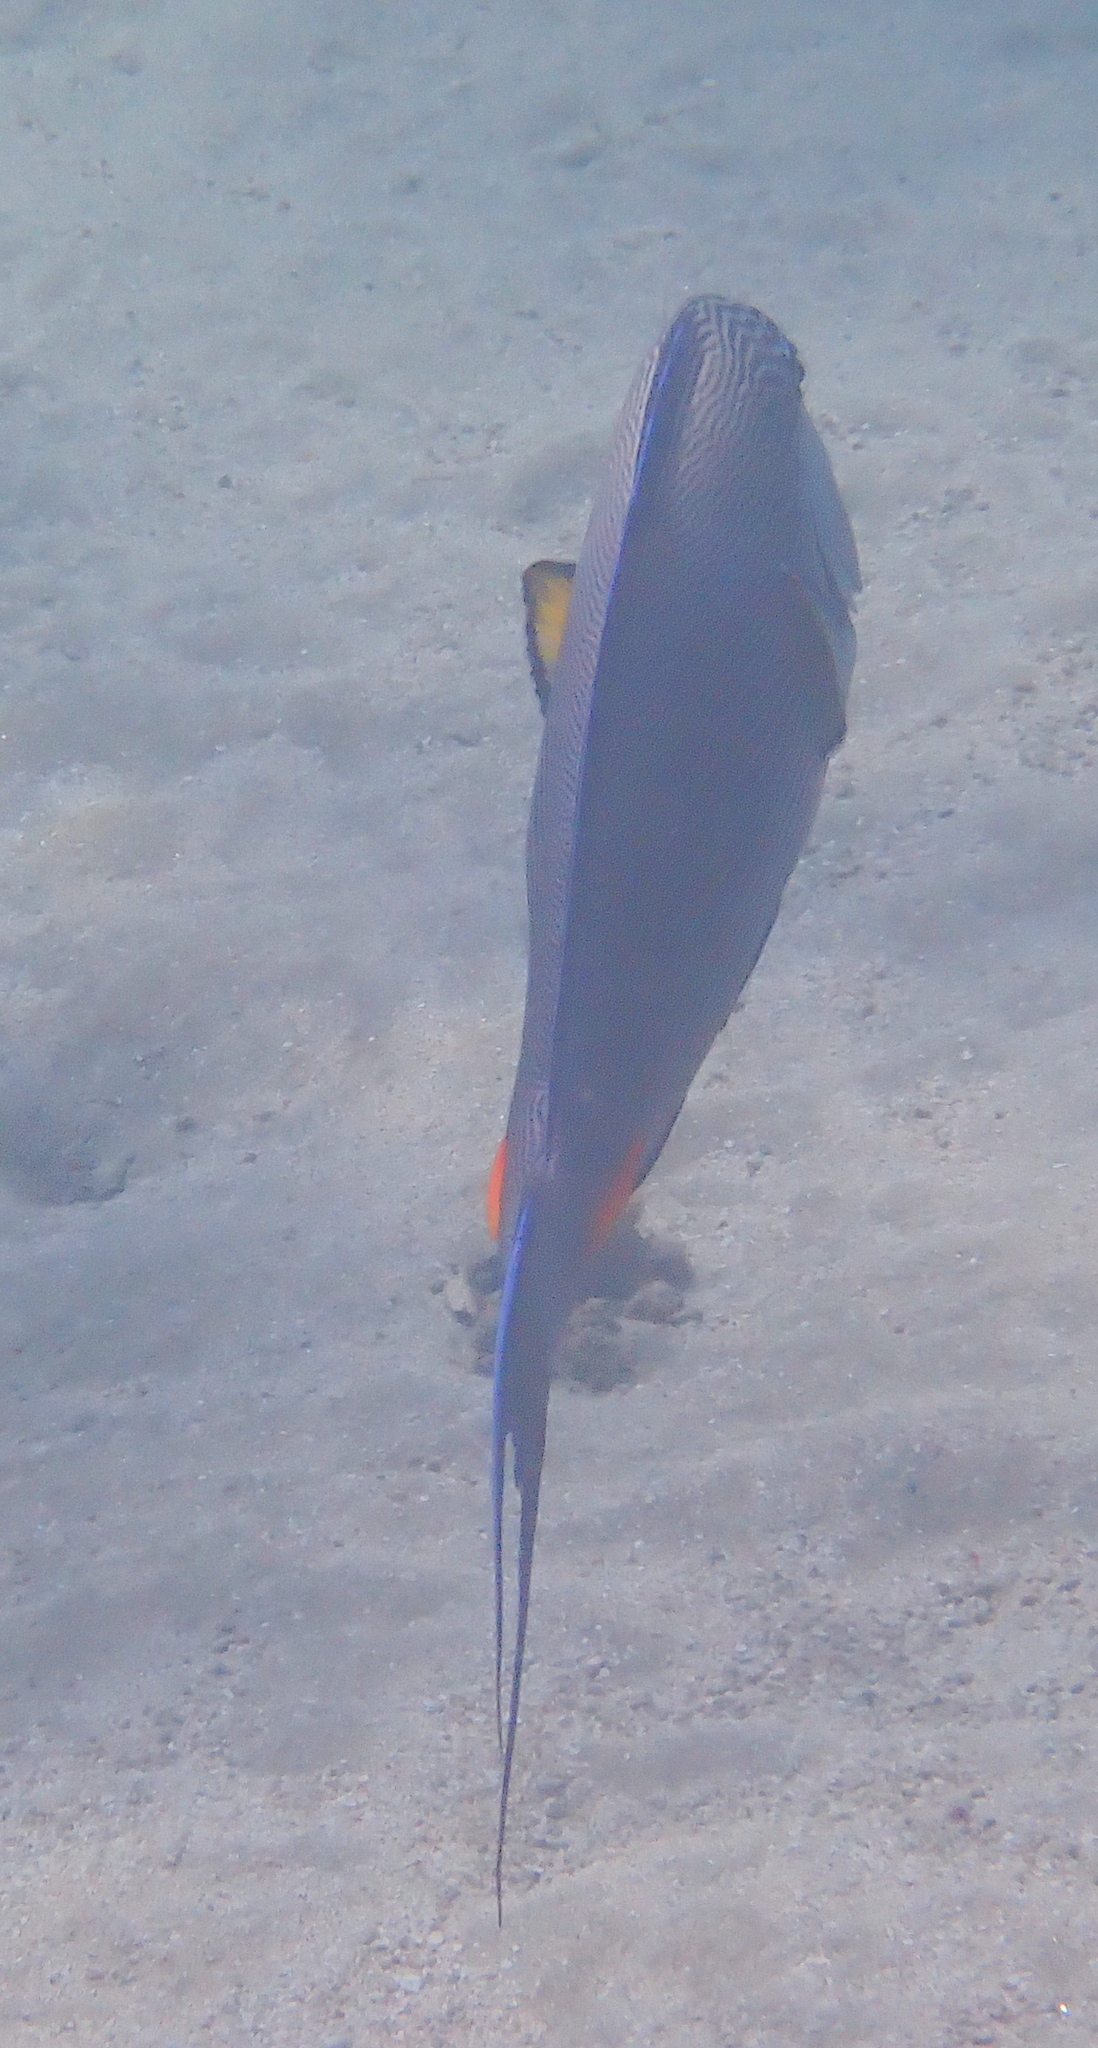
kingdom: Animalia
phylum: Chordata
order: Perciformes
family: Acanthuridae
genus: Acanthurus
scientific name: Acanthurus sohal
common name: Red sea surgeonfish
